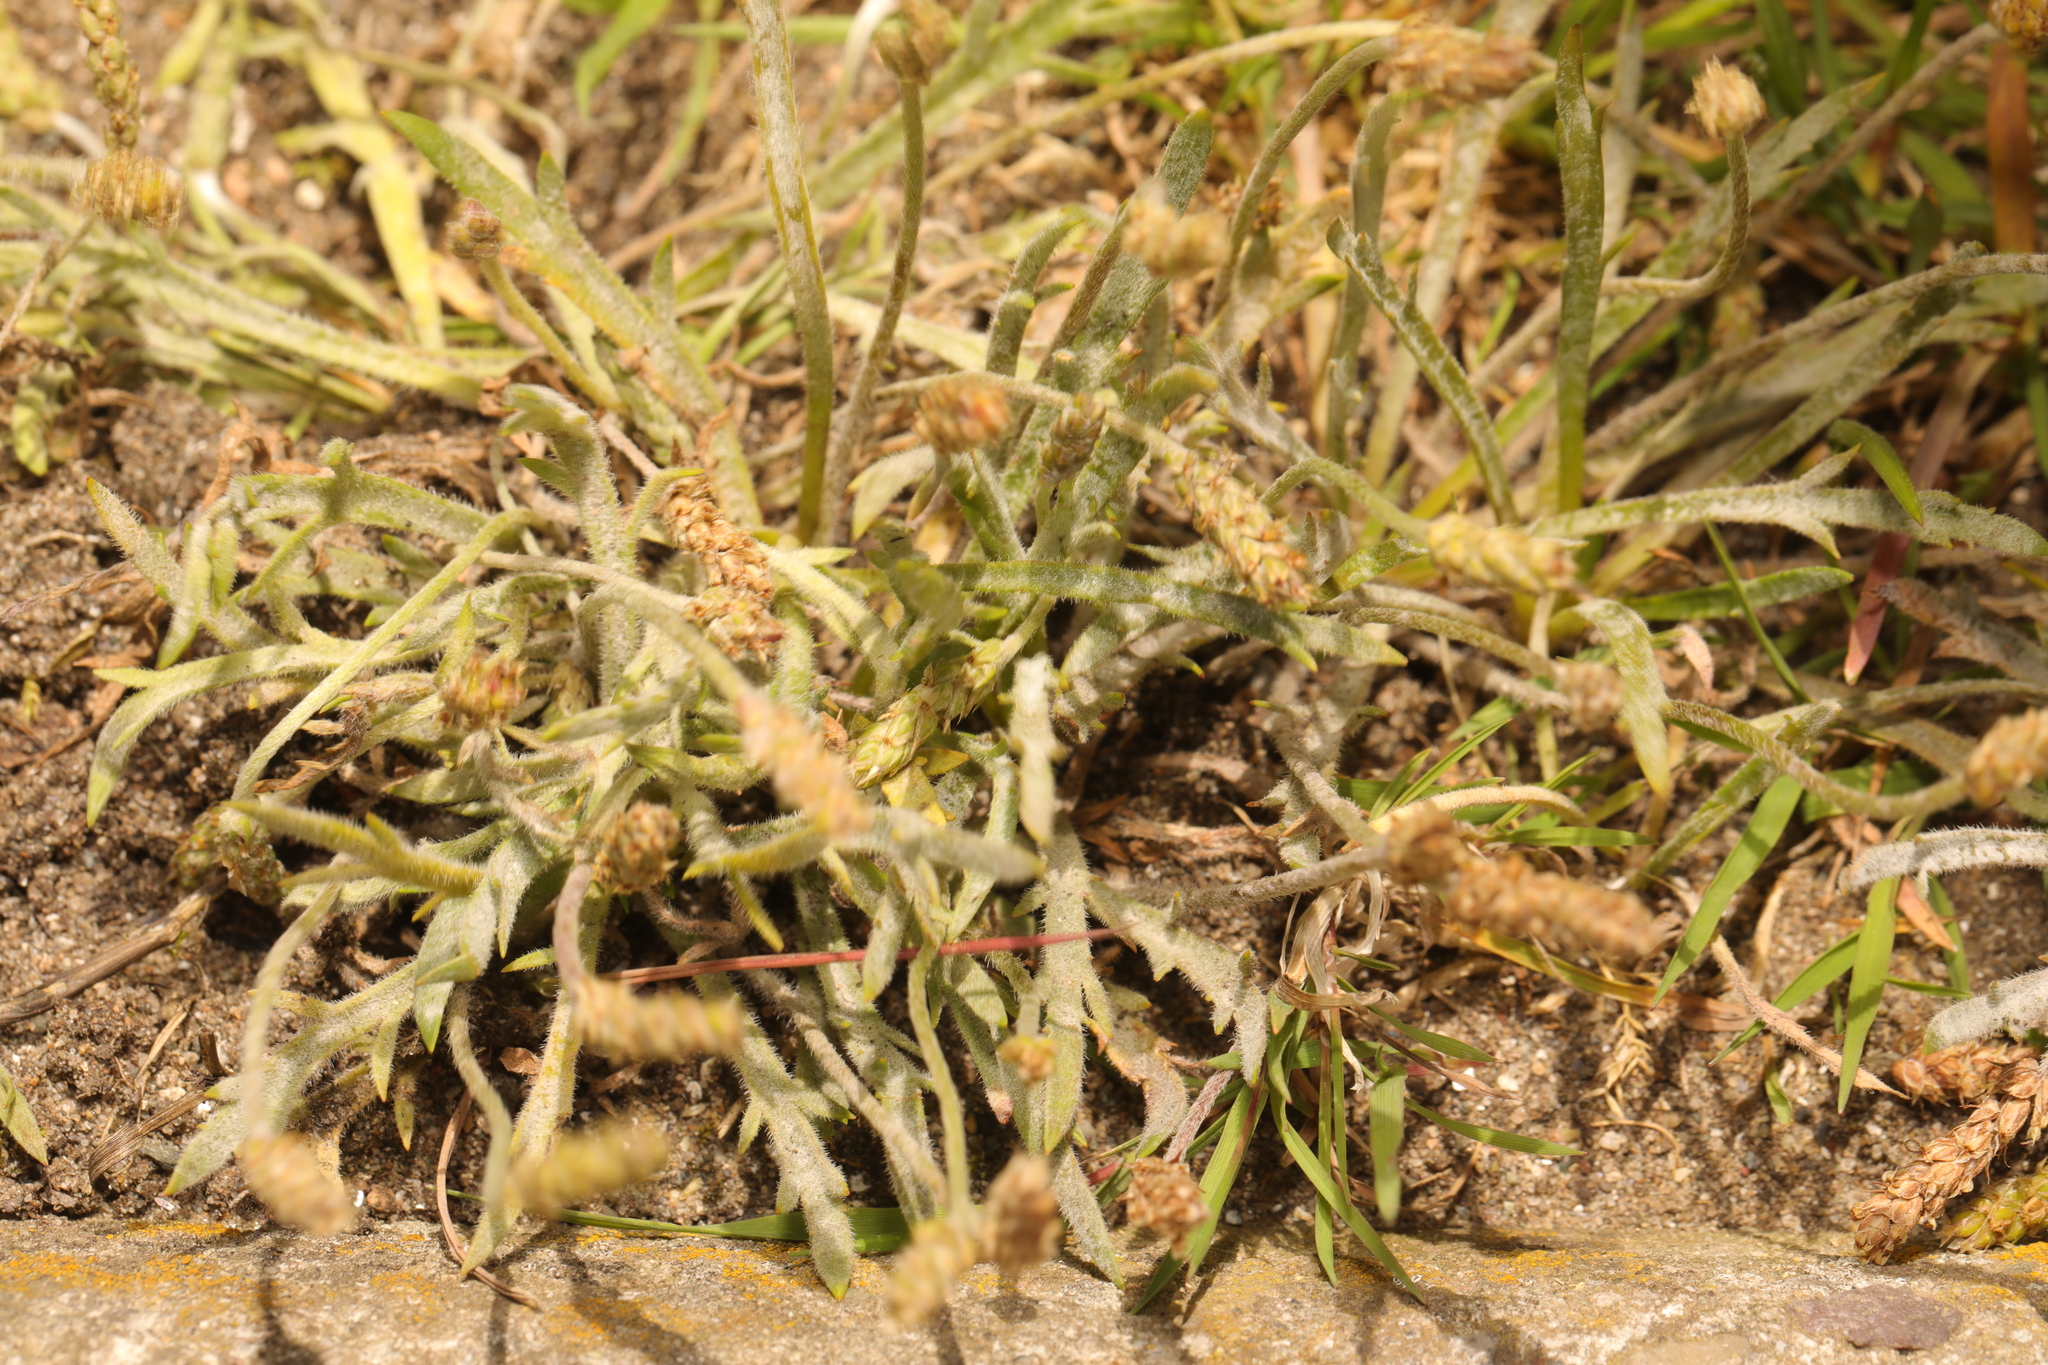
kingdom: Plantae
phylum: Tracheophyta
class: Magnoliopsida
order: Lamiales
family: Plantaginaceae
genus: Plantago
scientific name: Plantago coronopus
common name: Buck's-horn plantain
